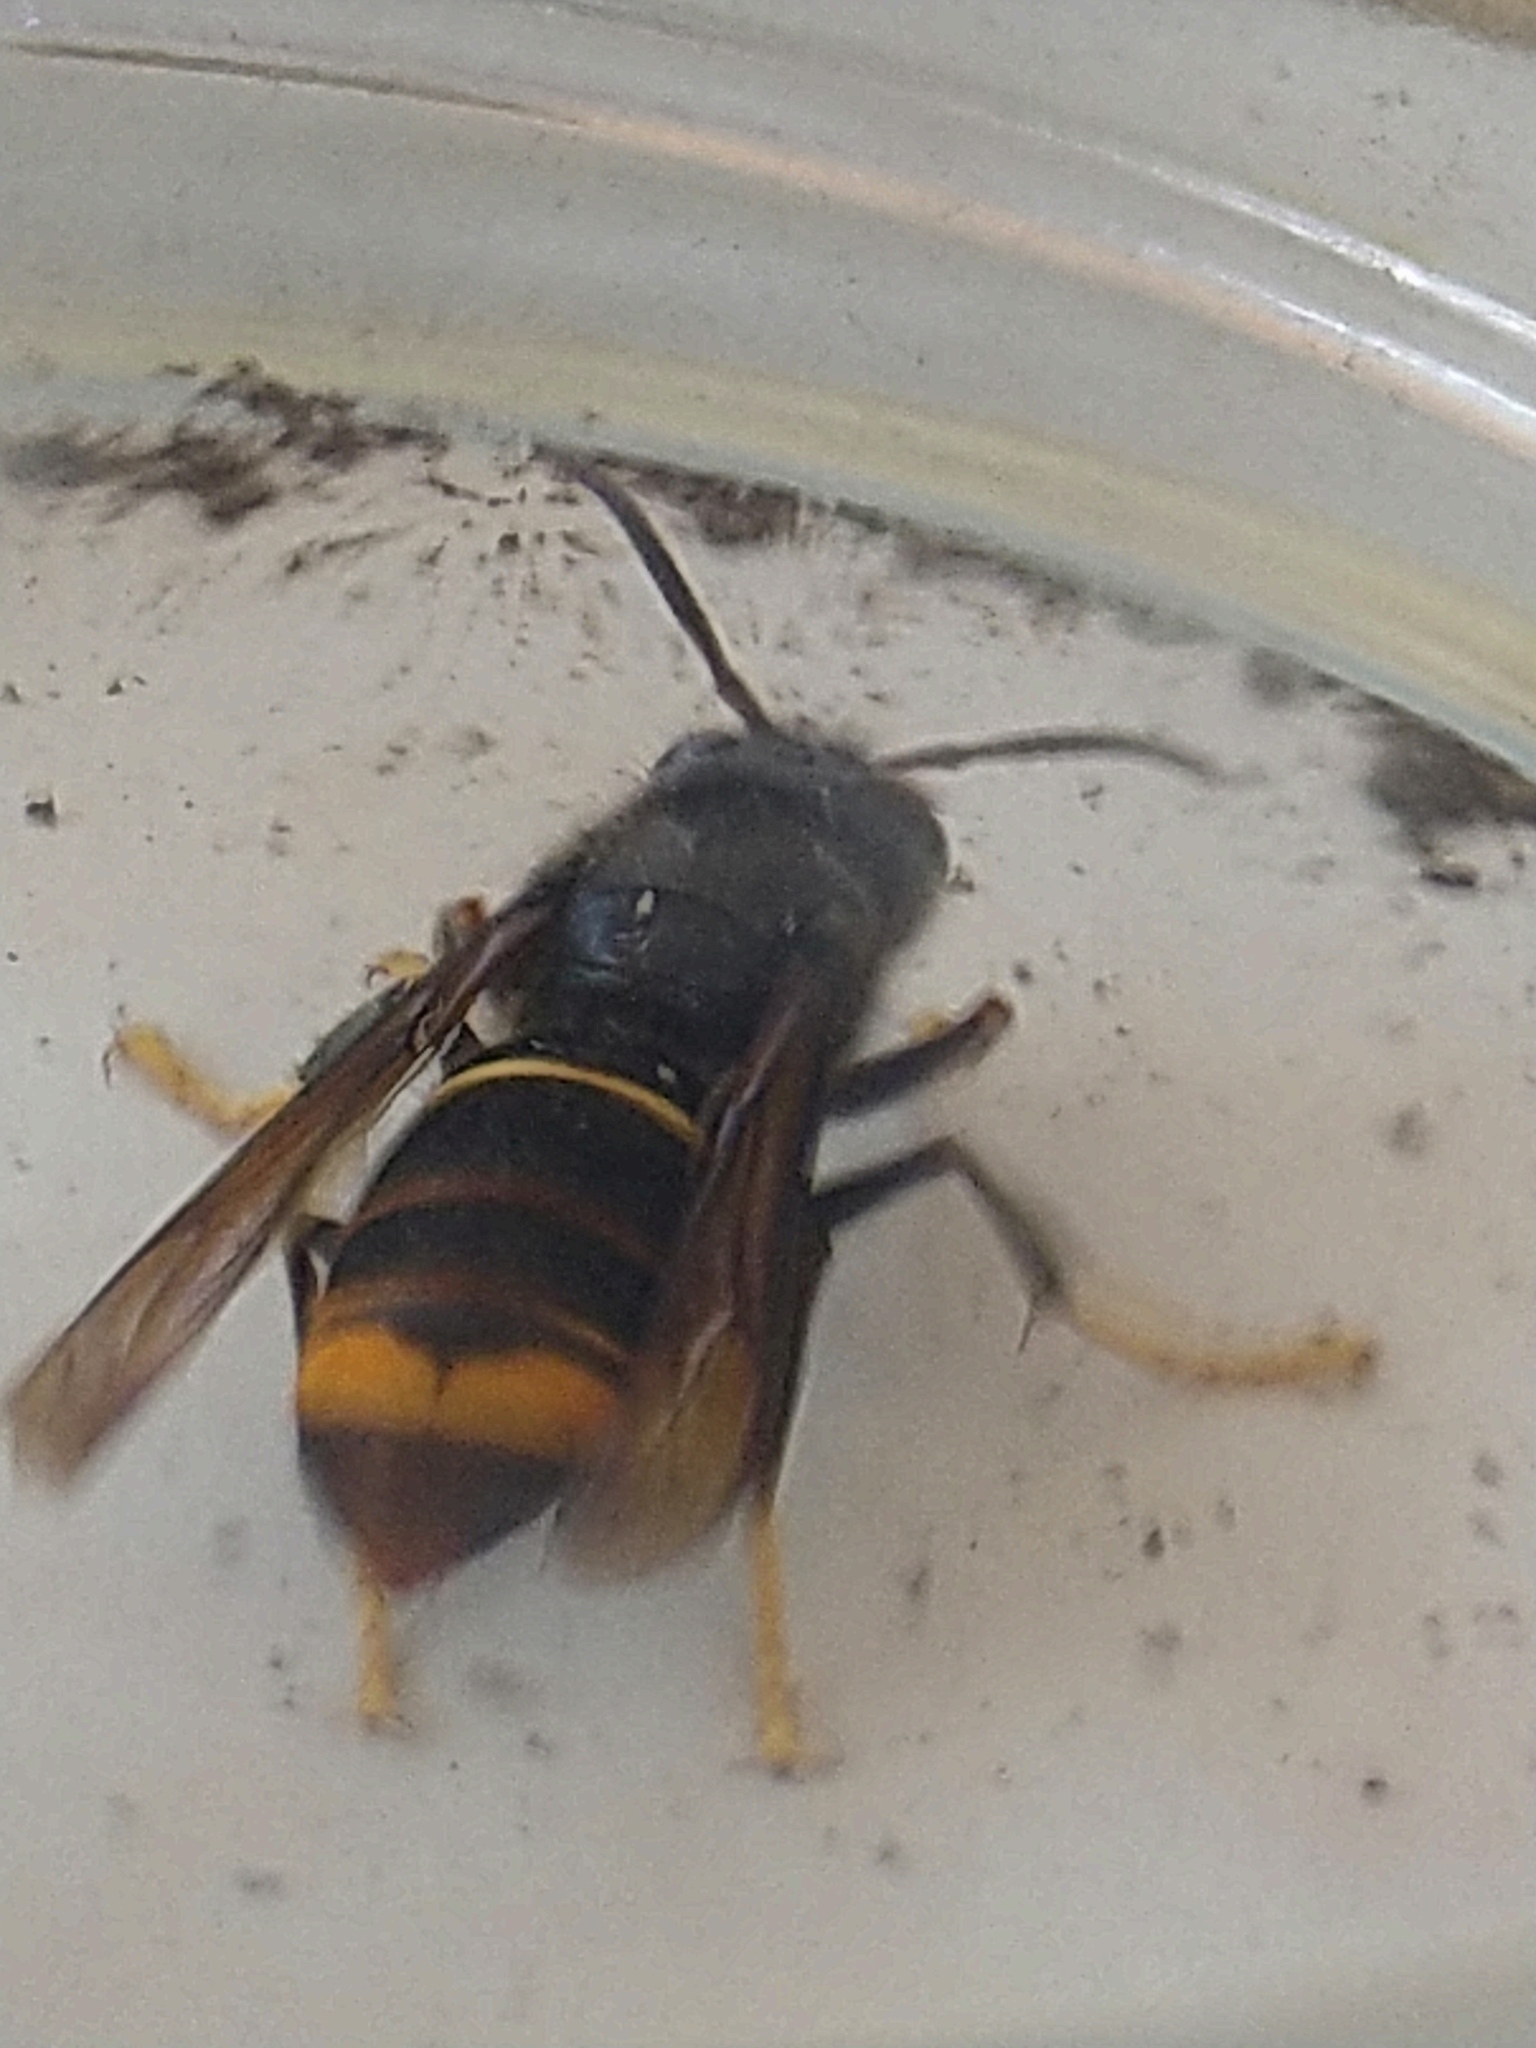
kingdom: Animalia
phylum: Arthropoda
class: Insecta
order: Hymenoptera
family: Vespidae
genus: Vespa
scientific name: Vespa velutina
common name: Asian hornet
